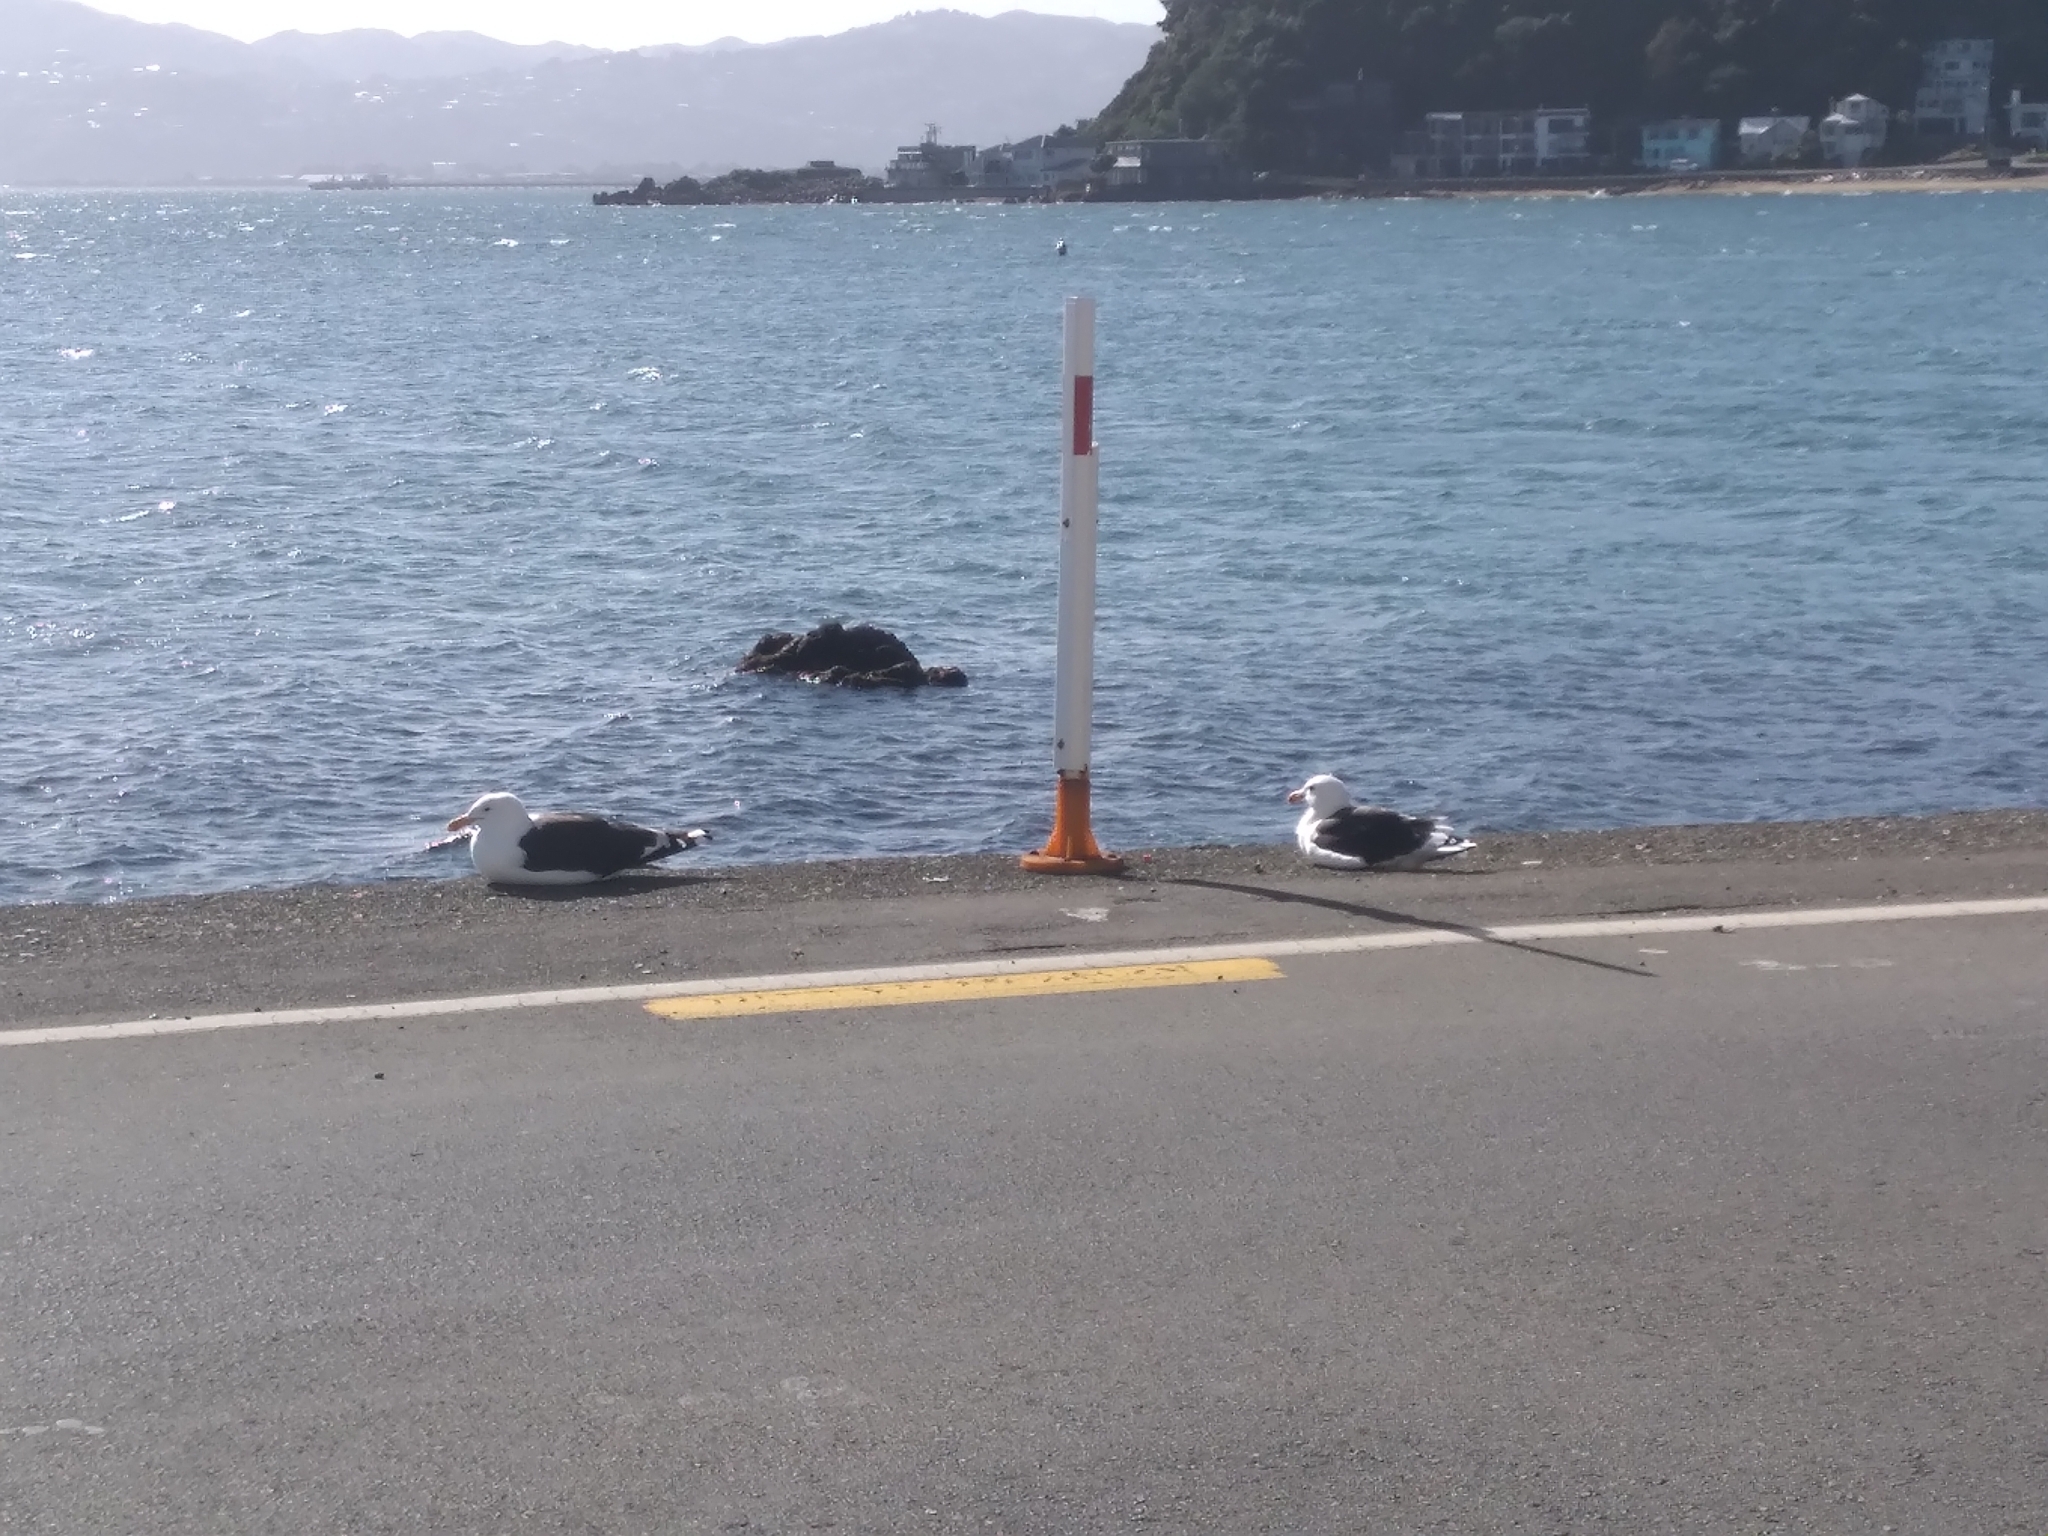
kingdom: Animalia
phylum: Chordata
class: Aves
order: Charadriiformes
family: Laridae
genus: Larus
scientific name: Larus dominicanus
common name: Kelp gull
